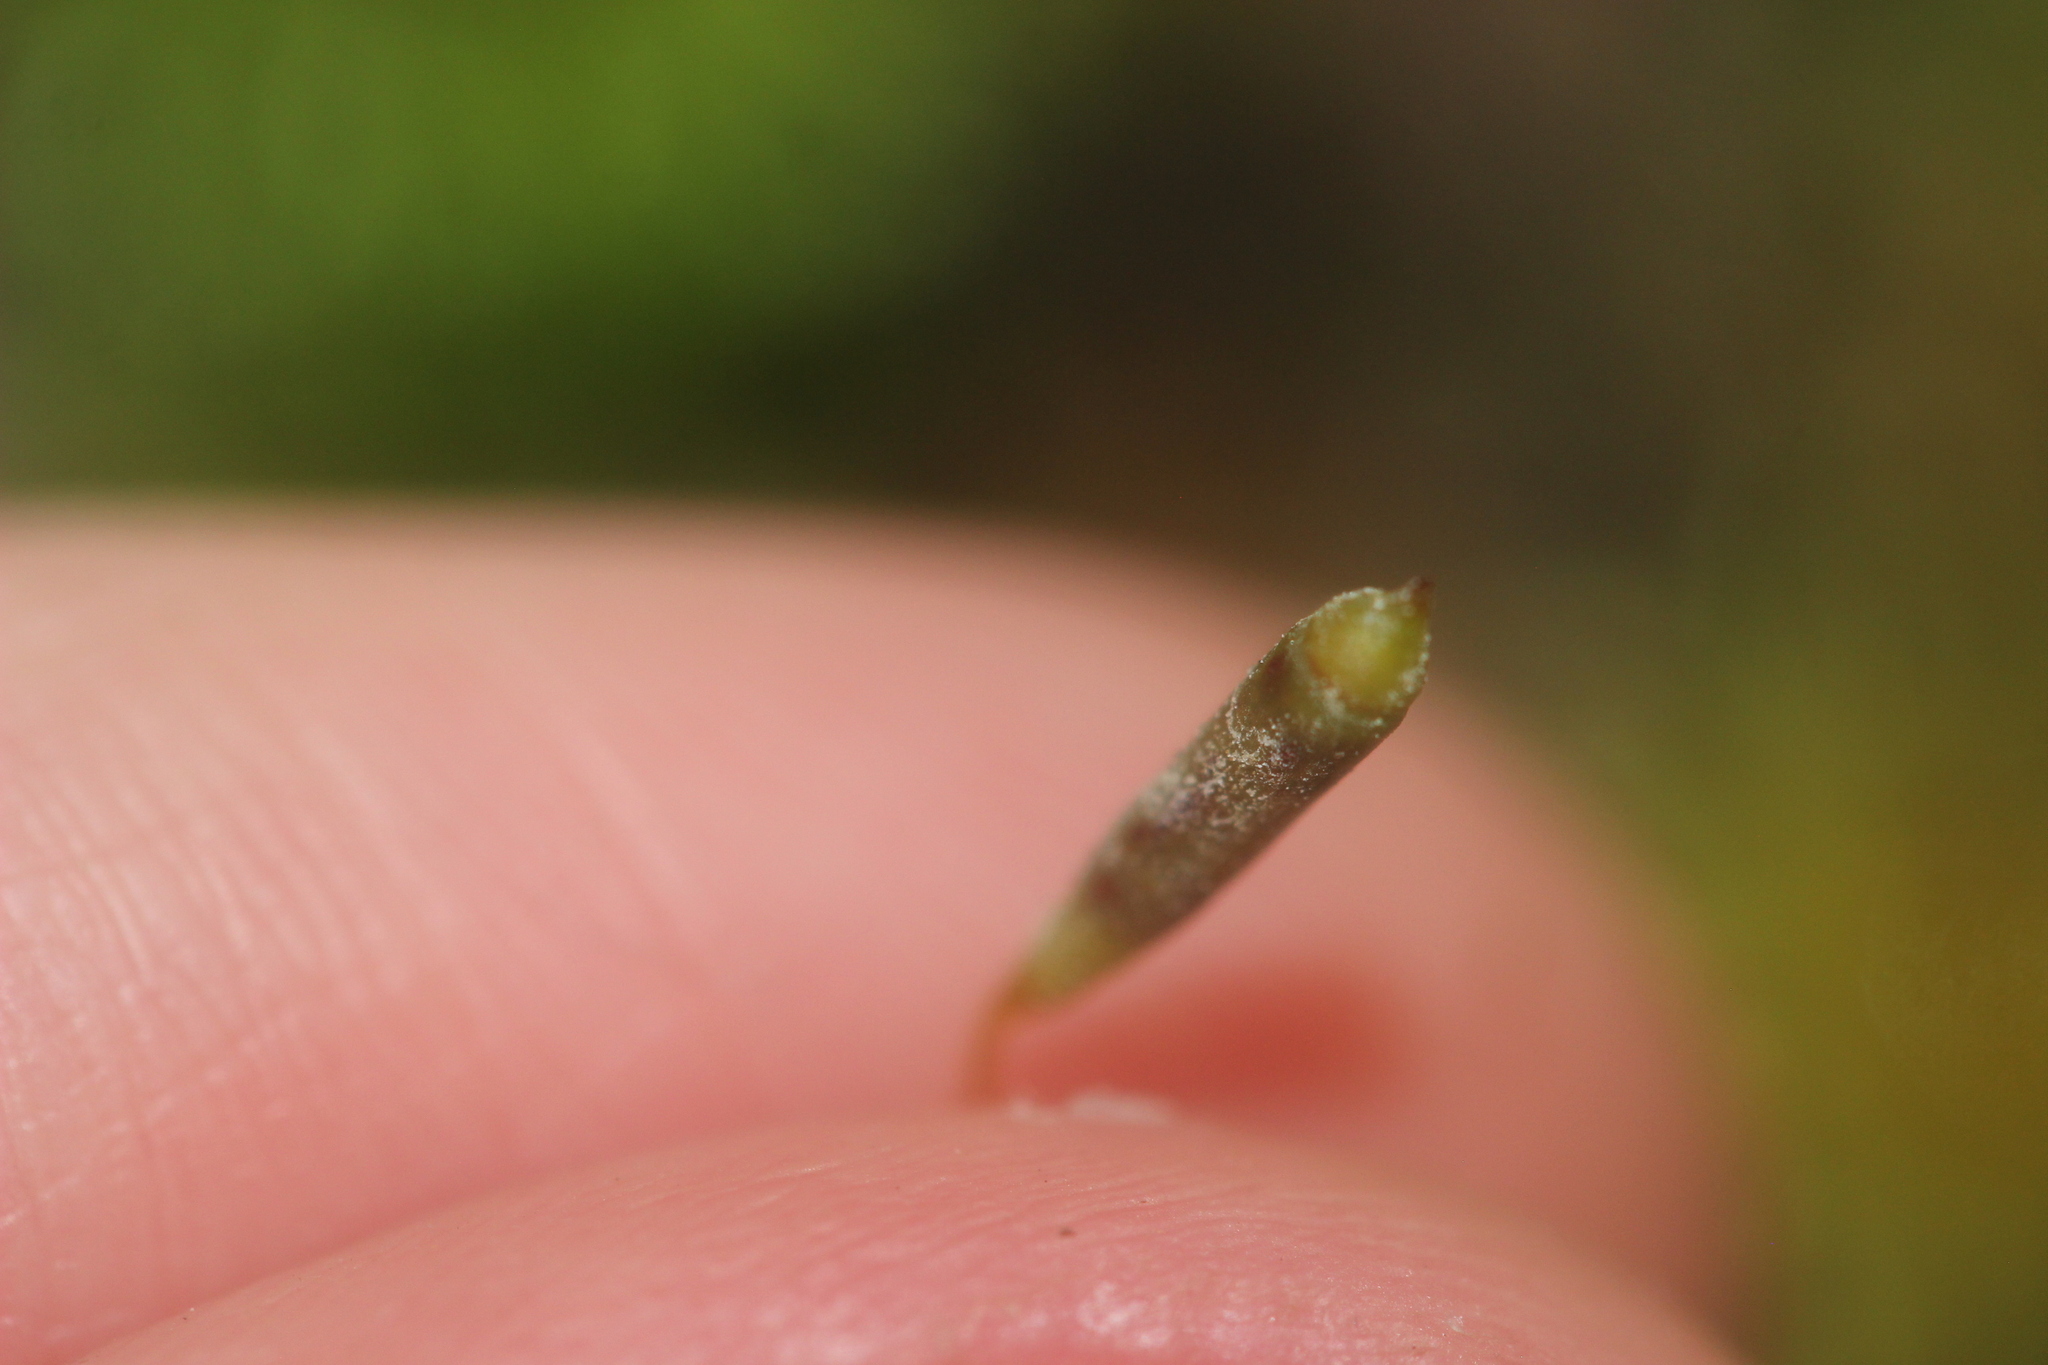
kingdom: Plantae
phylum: Bryophyta
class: Bryopsida
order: Hypnodendrales
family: Pterobryellaceae
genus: Sciadocladus
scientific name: Sciadocladus menziesii
